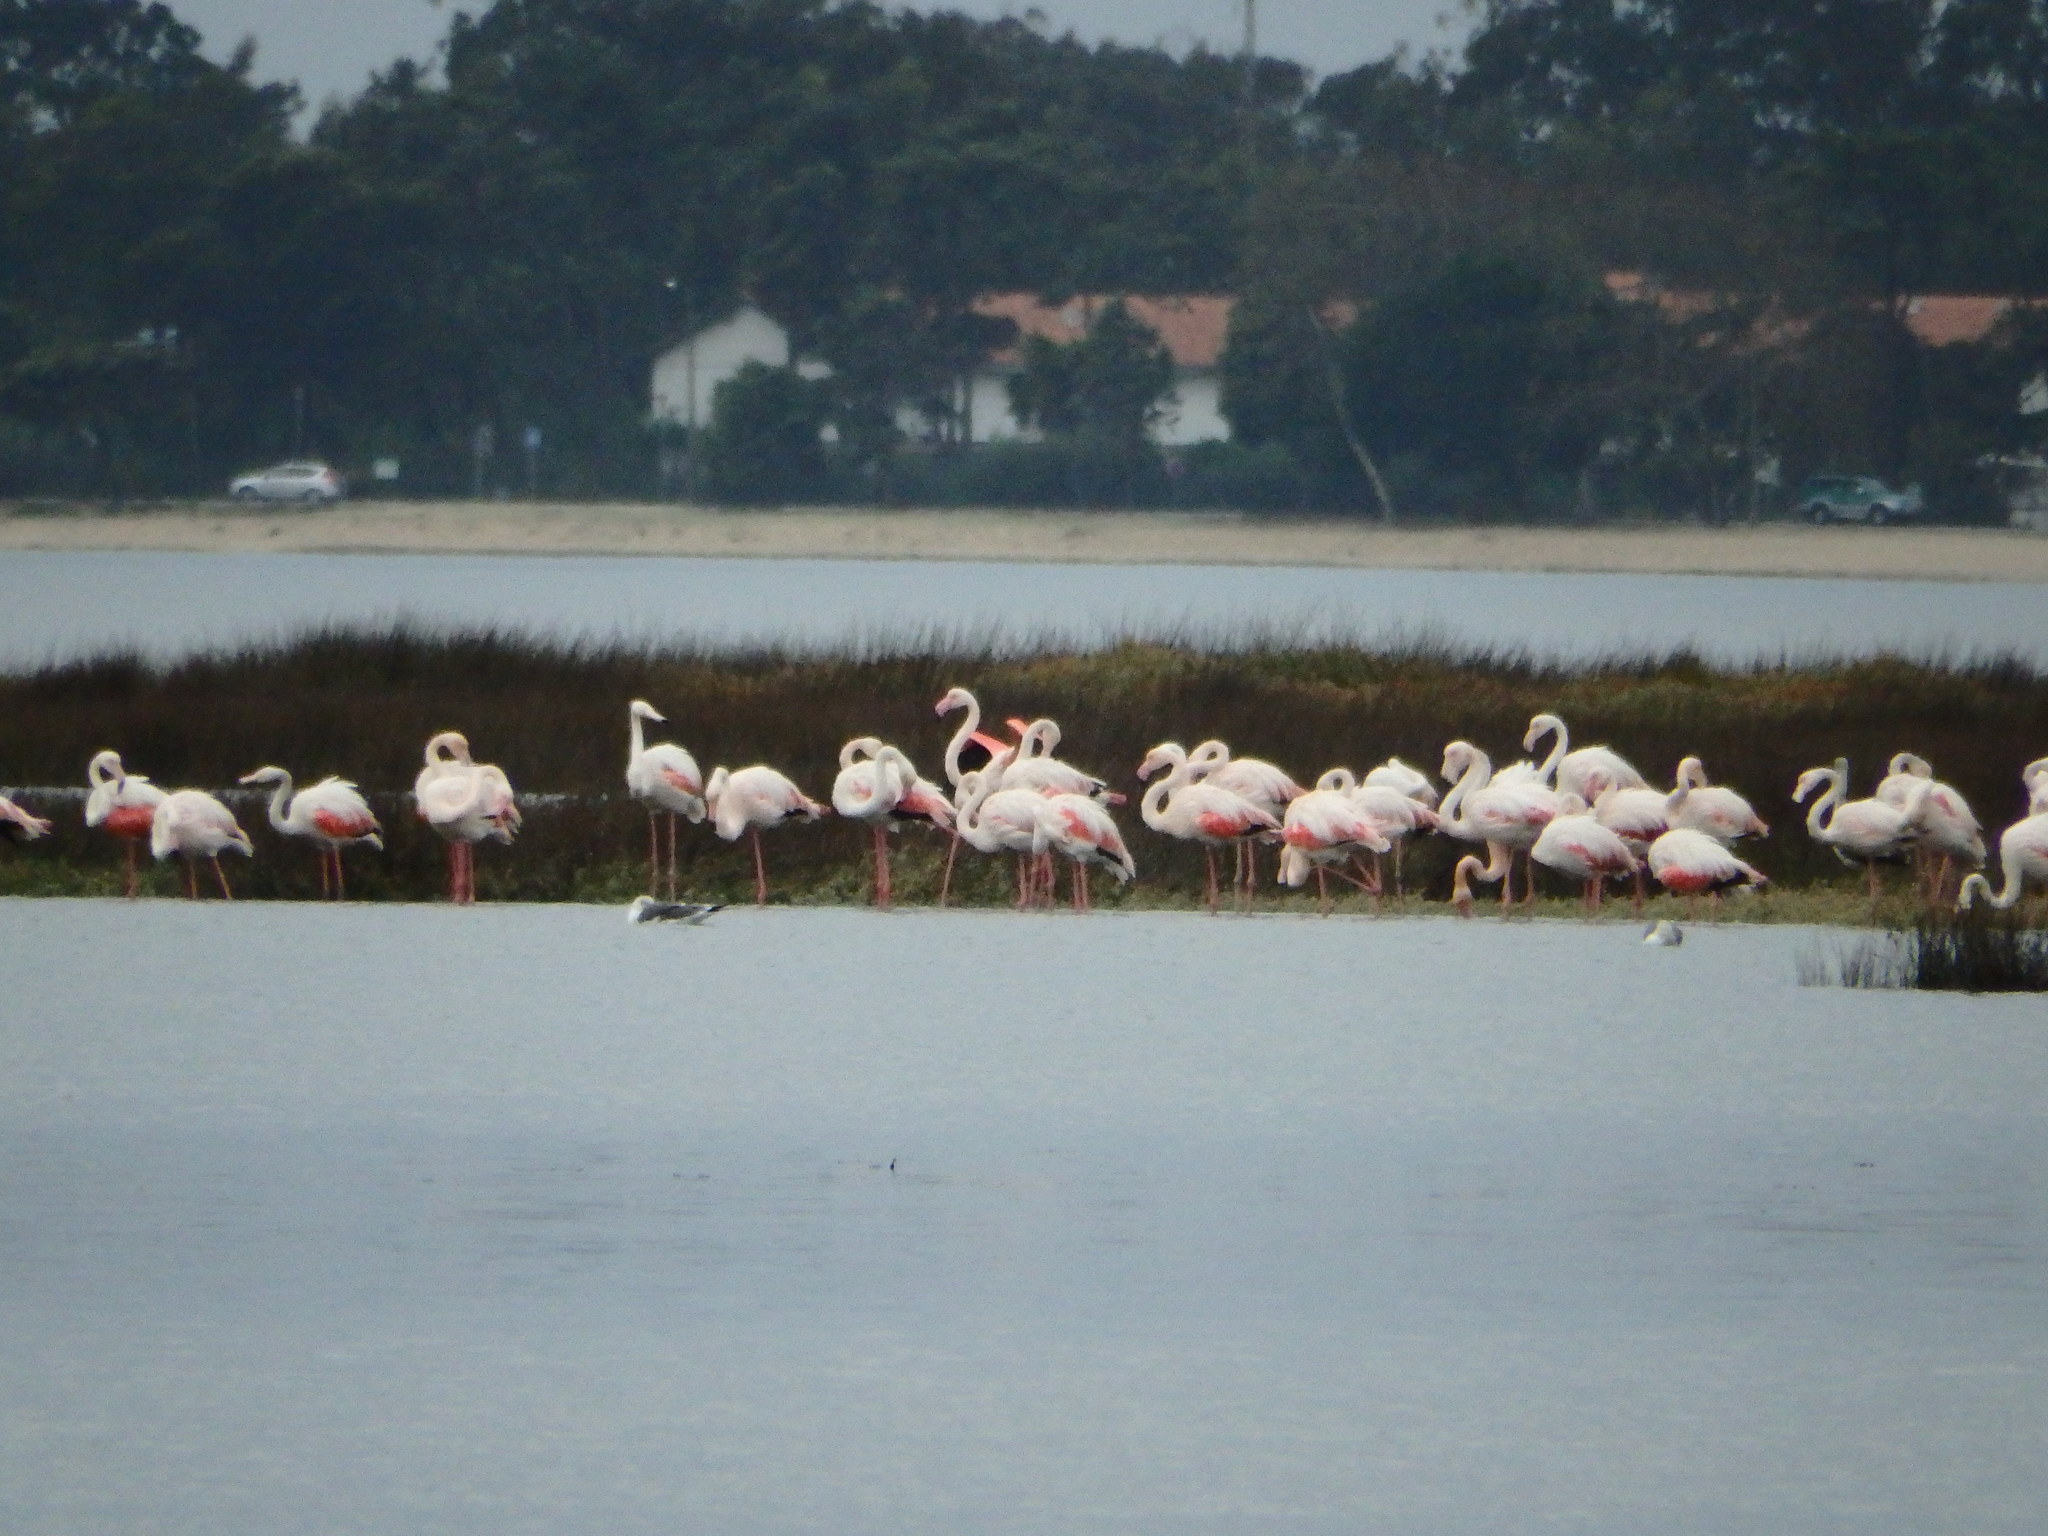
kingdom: Animalia
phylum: Chordata
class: Aves
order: Phoenicopteriformes
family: Phoenicopteridae
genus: Phoenicopterus
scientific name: Phoenicopterus roseus
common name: Greater flamingo
